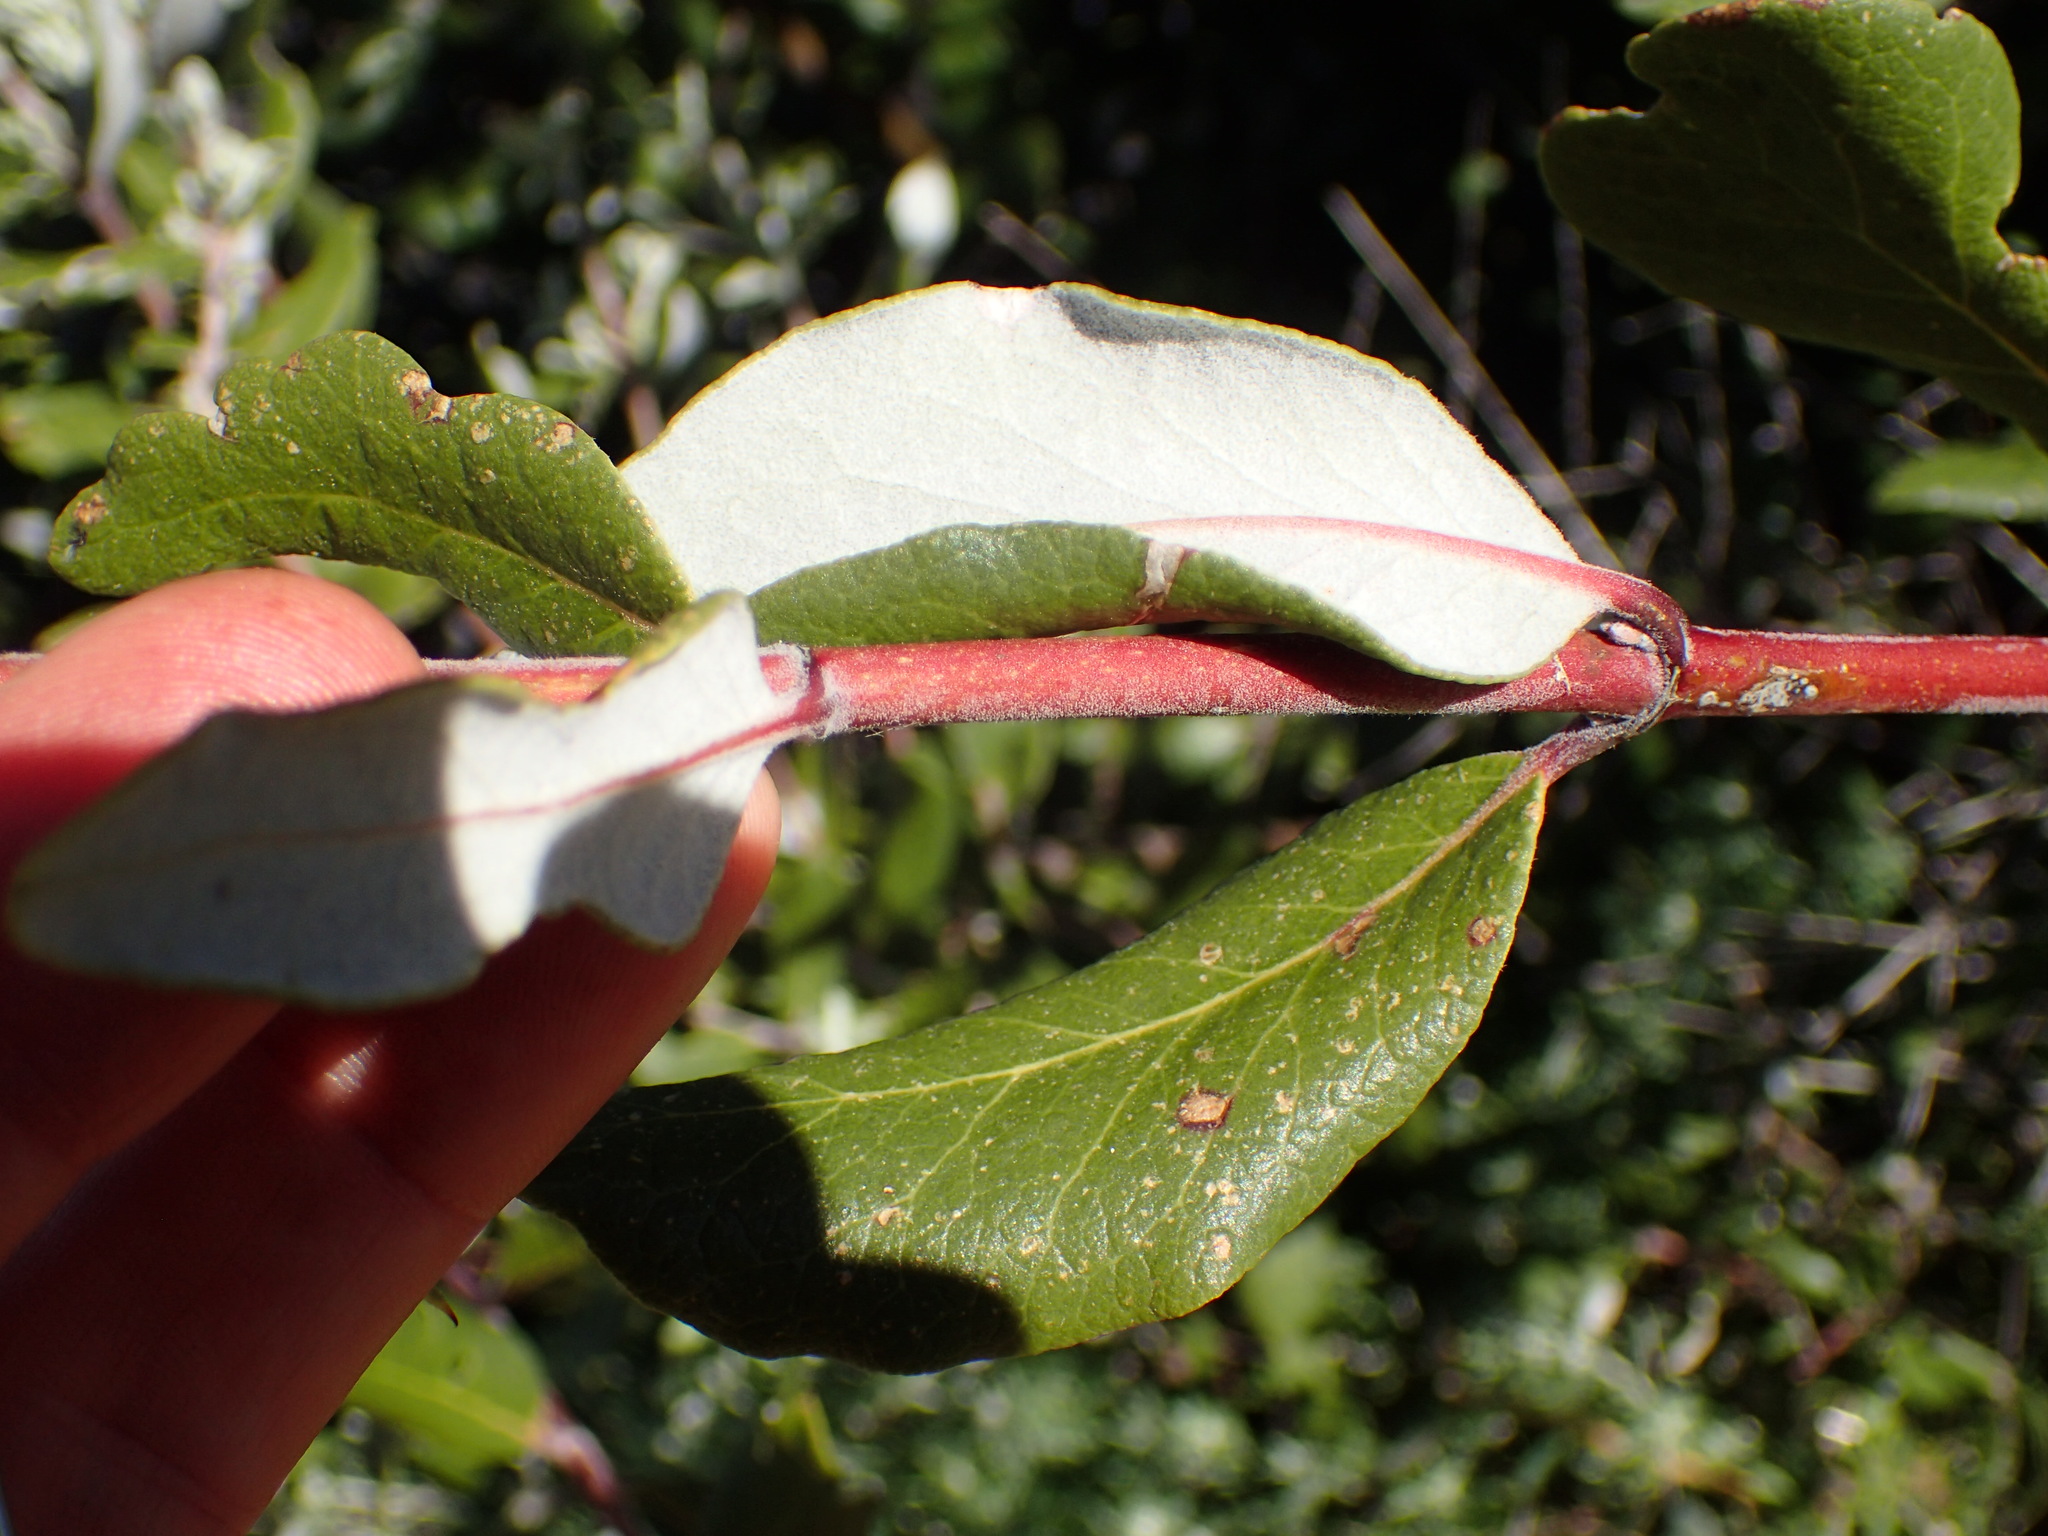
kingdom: Plantae
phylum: Tracheophyta
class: Magnoliopsida
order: Garryales
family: Garryaceae
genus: Garrya
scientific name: Garrya veatchii
